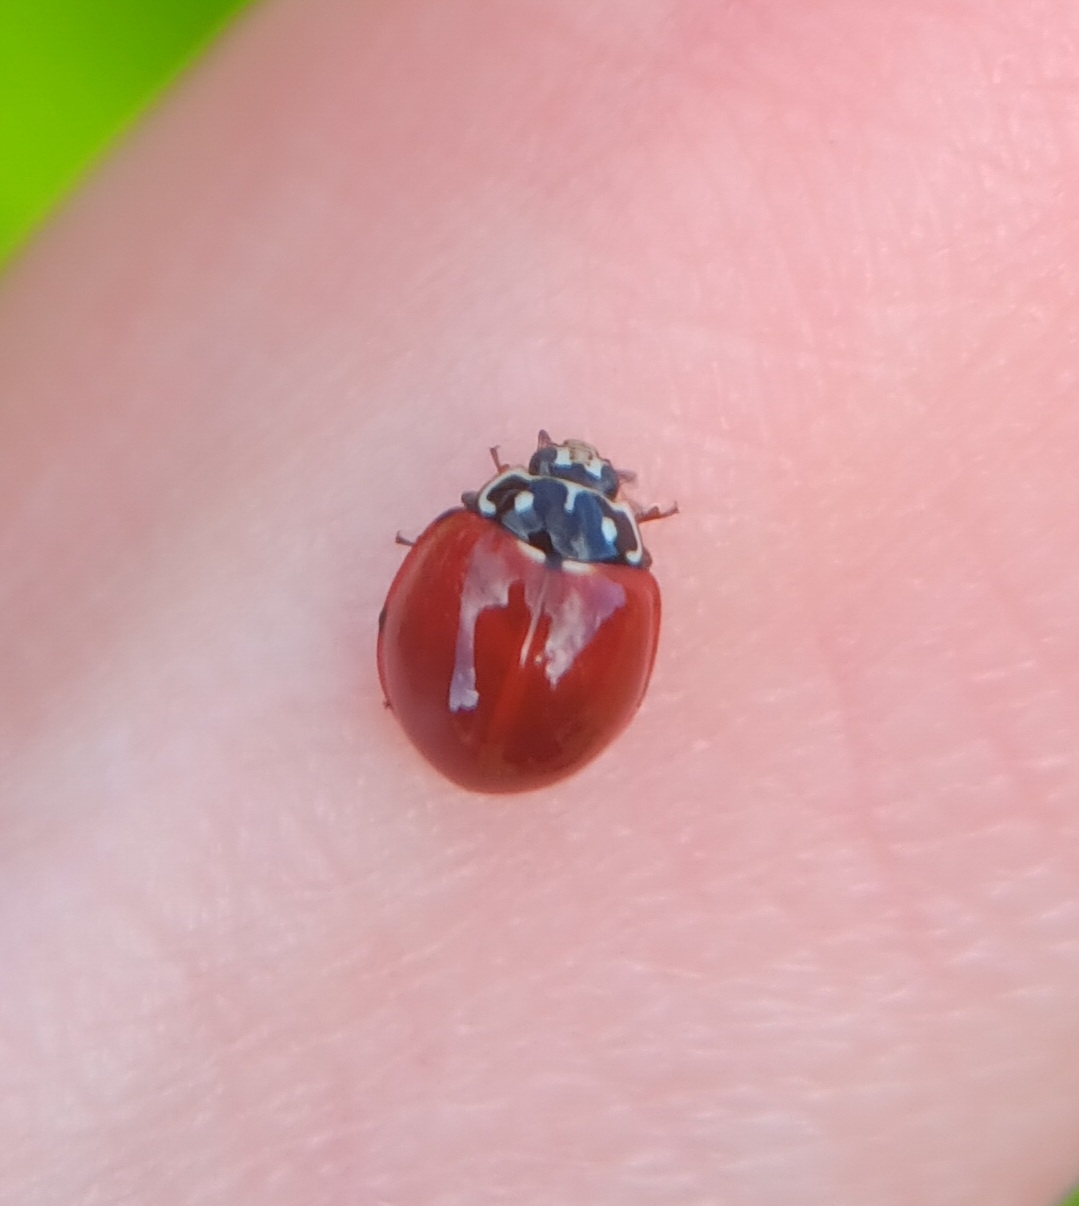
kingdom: Animalia
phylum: Arthropoda
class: Insecta
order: Coleoptera
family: Coccinellidae
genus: Cycloneda
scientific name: Cycloneda sanguinea
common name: Ladybird beetle
